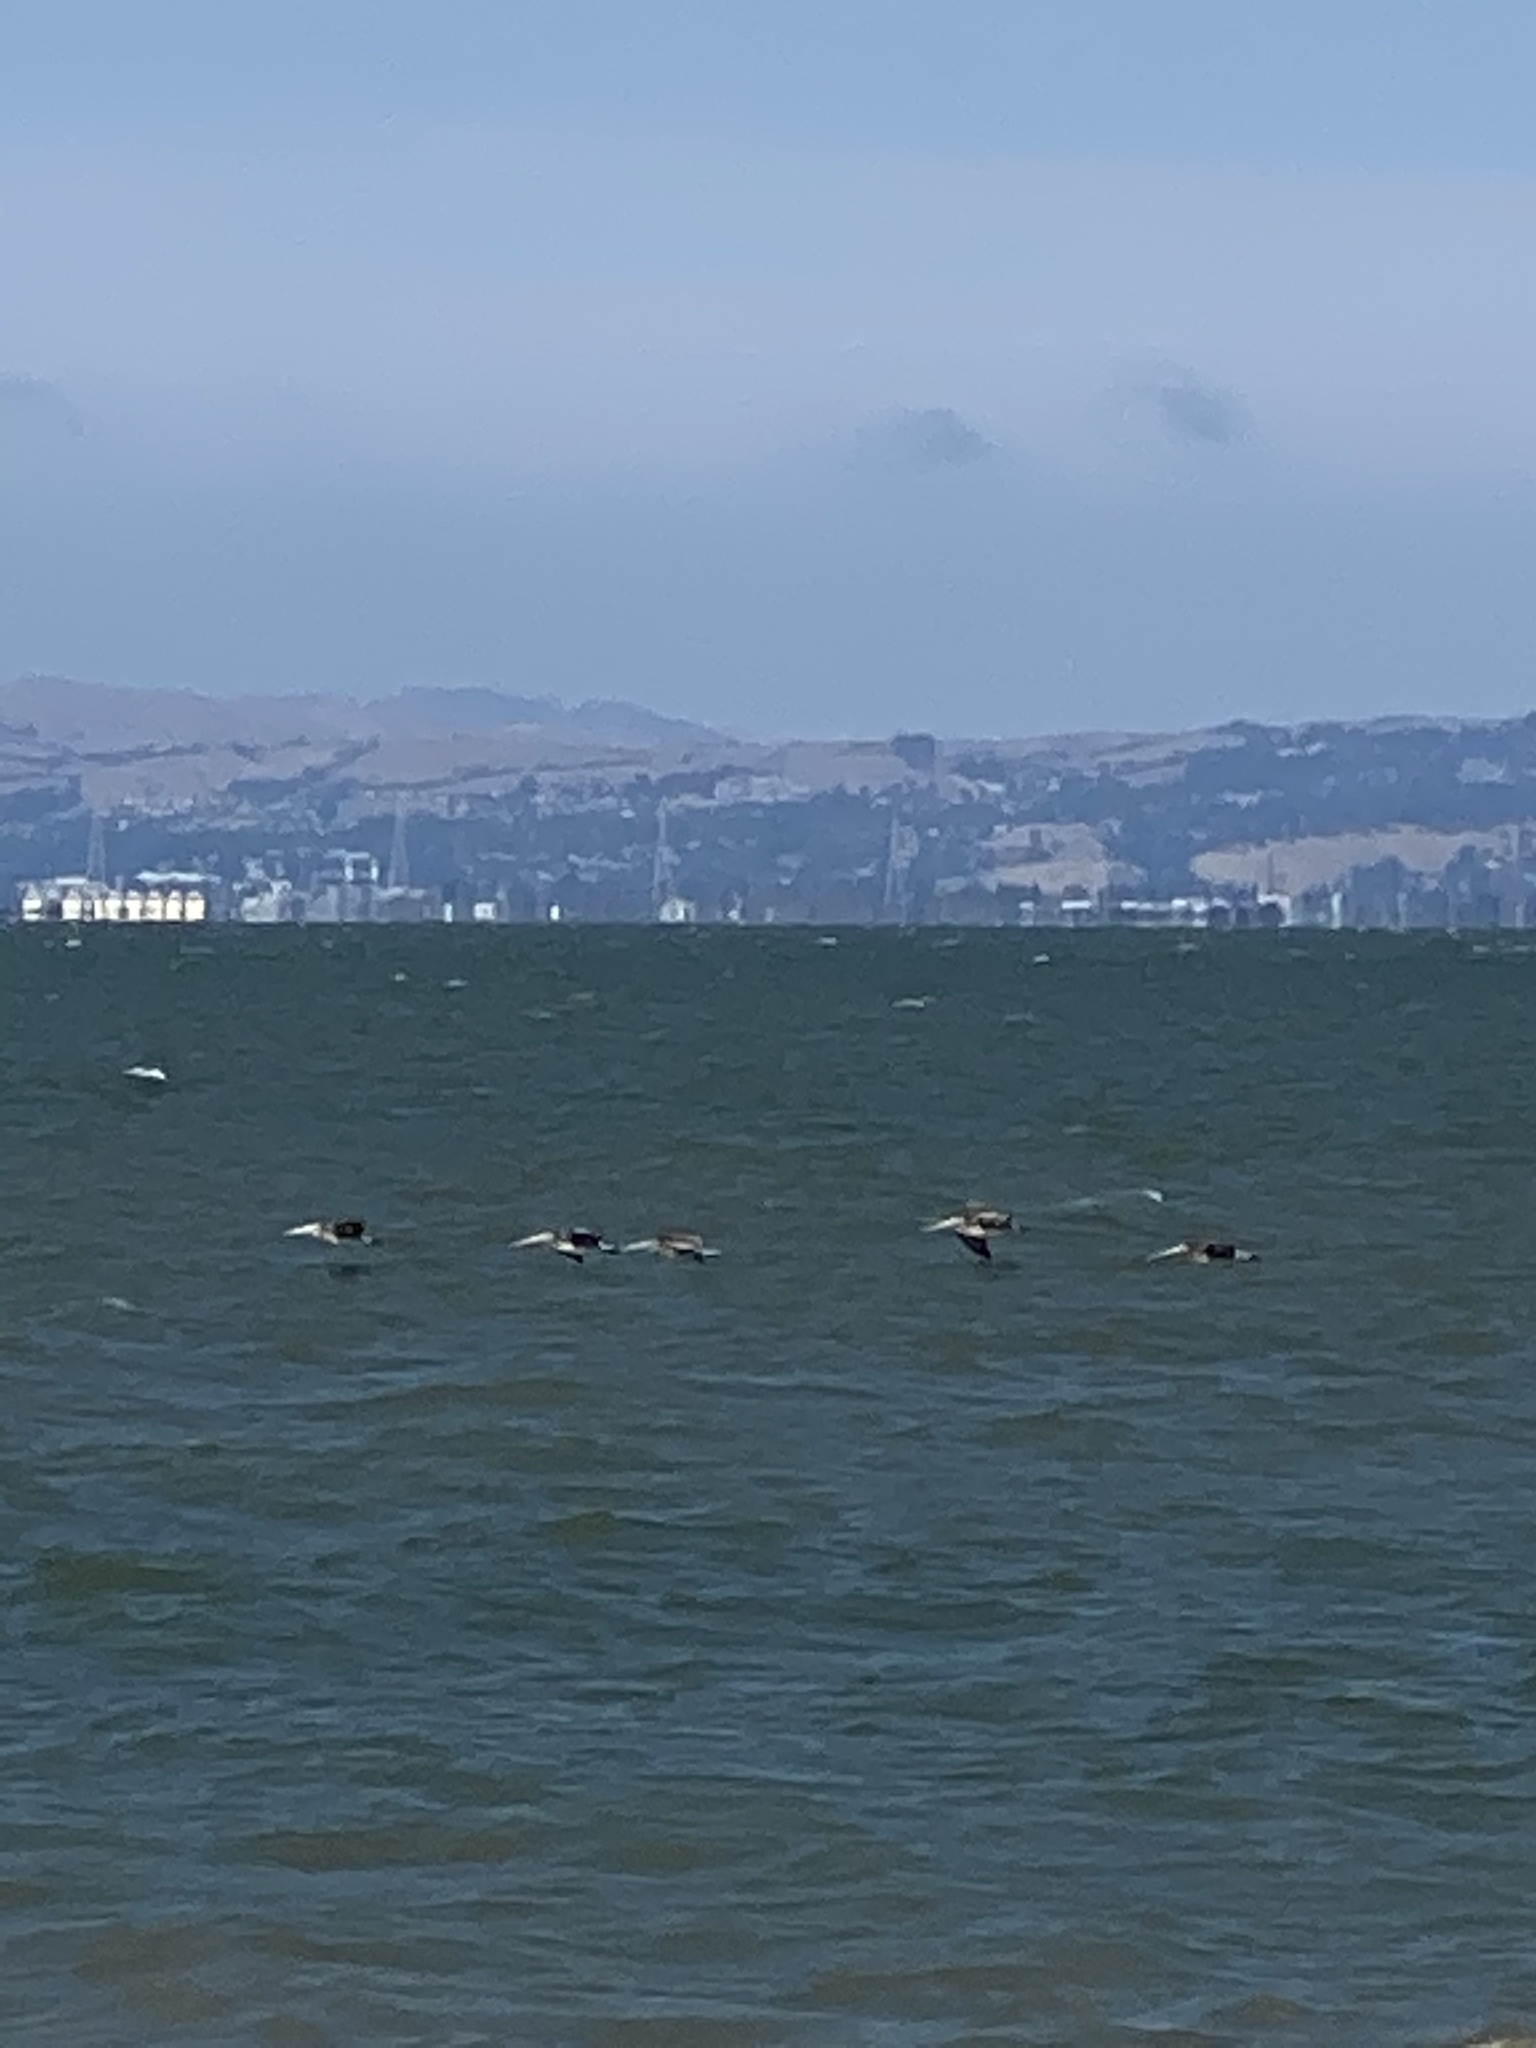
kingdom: Animalia
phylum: Chordata
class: Aves
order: Pelecaniformes
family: Pelecanidae
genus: Pelecanus
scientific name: Pelecanus occidentalis
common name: Brown pelican
